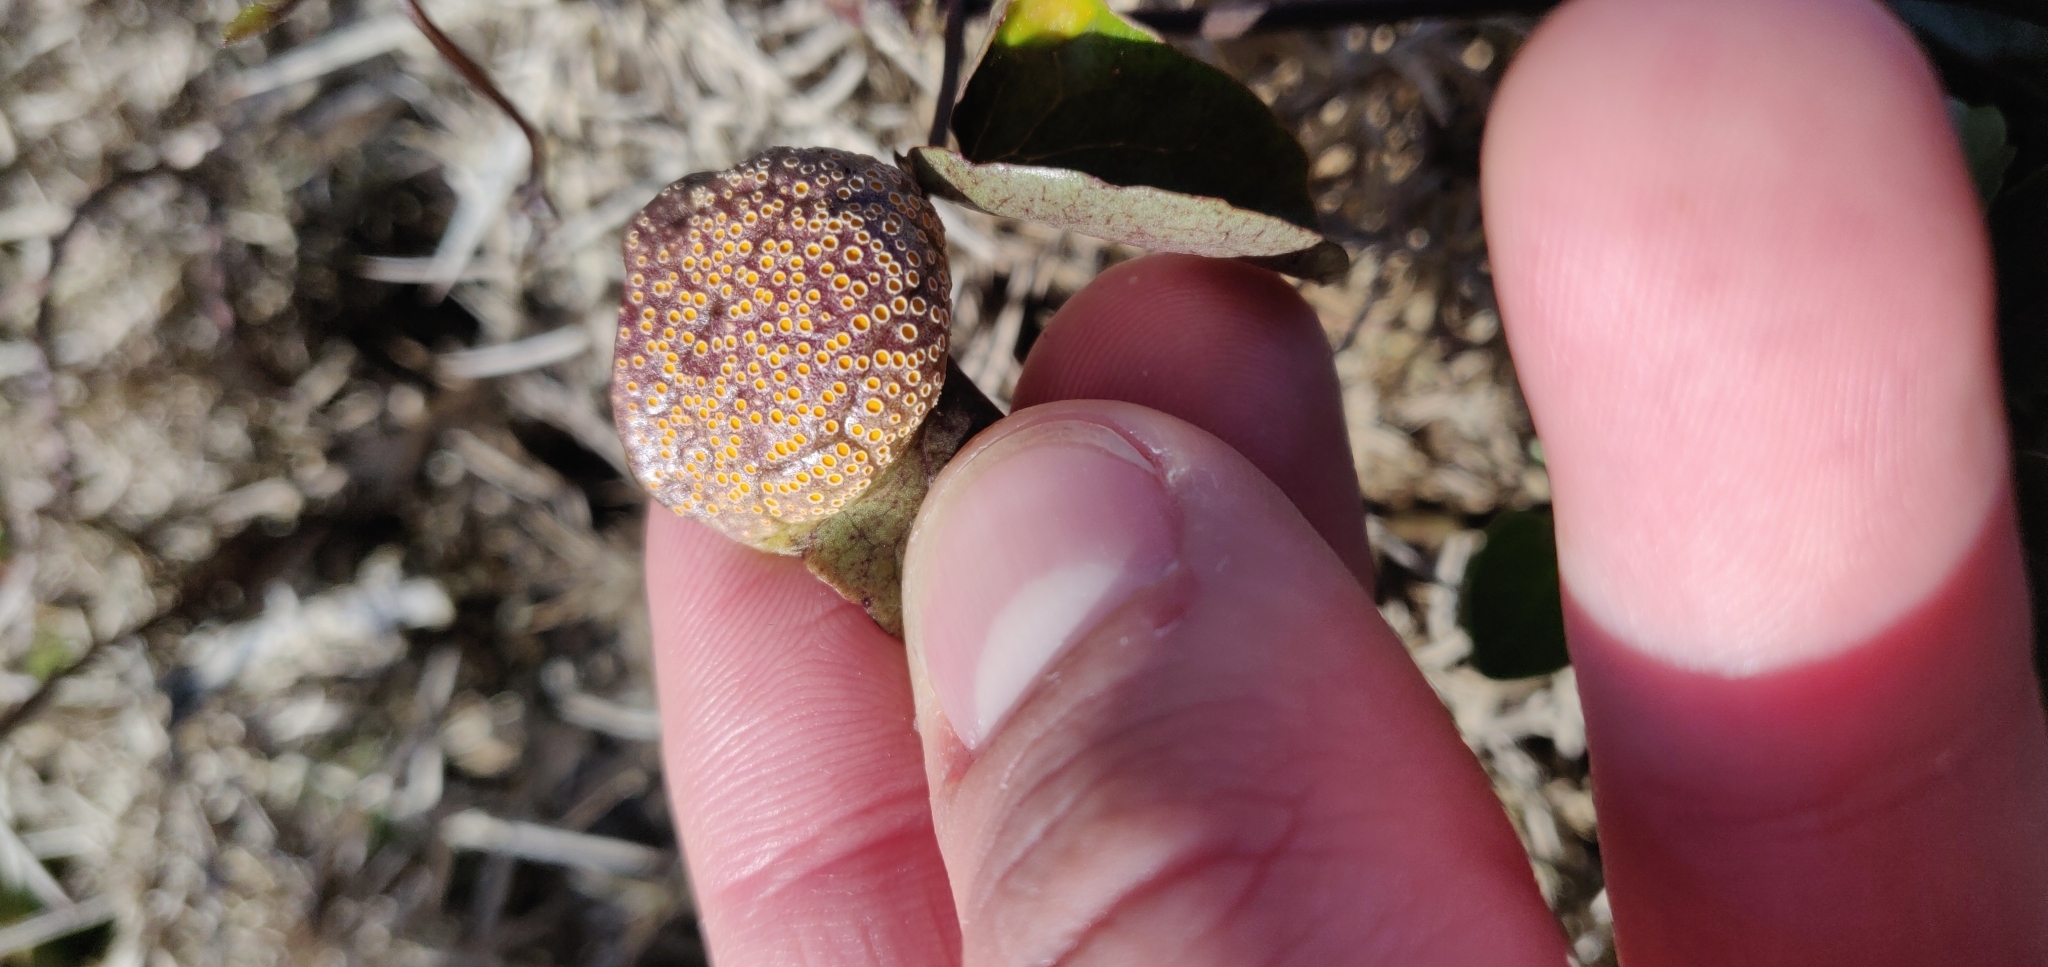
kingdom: Fungi
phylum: Basidiomycota
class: Pucciniomycetes
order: Pucciniales
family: Pucciniaceae
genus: Puccinia
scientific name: Puccinia otagensis
